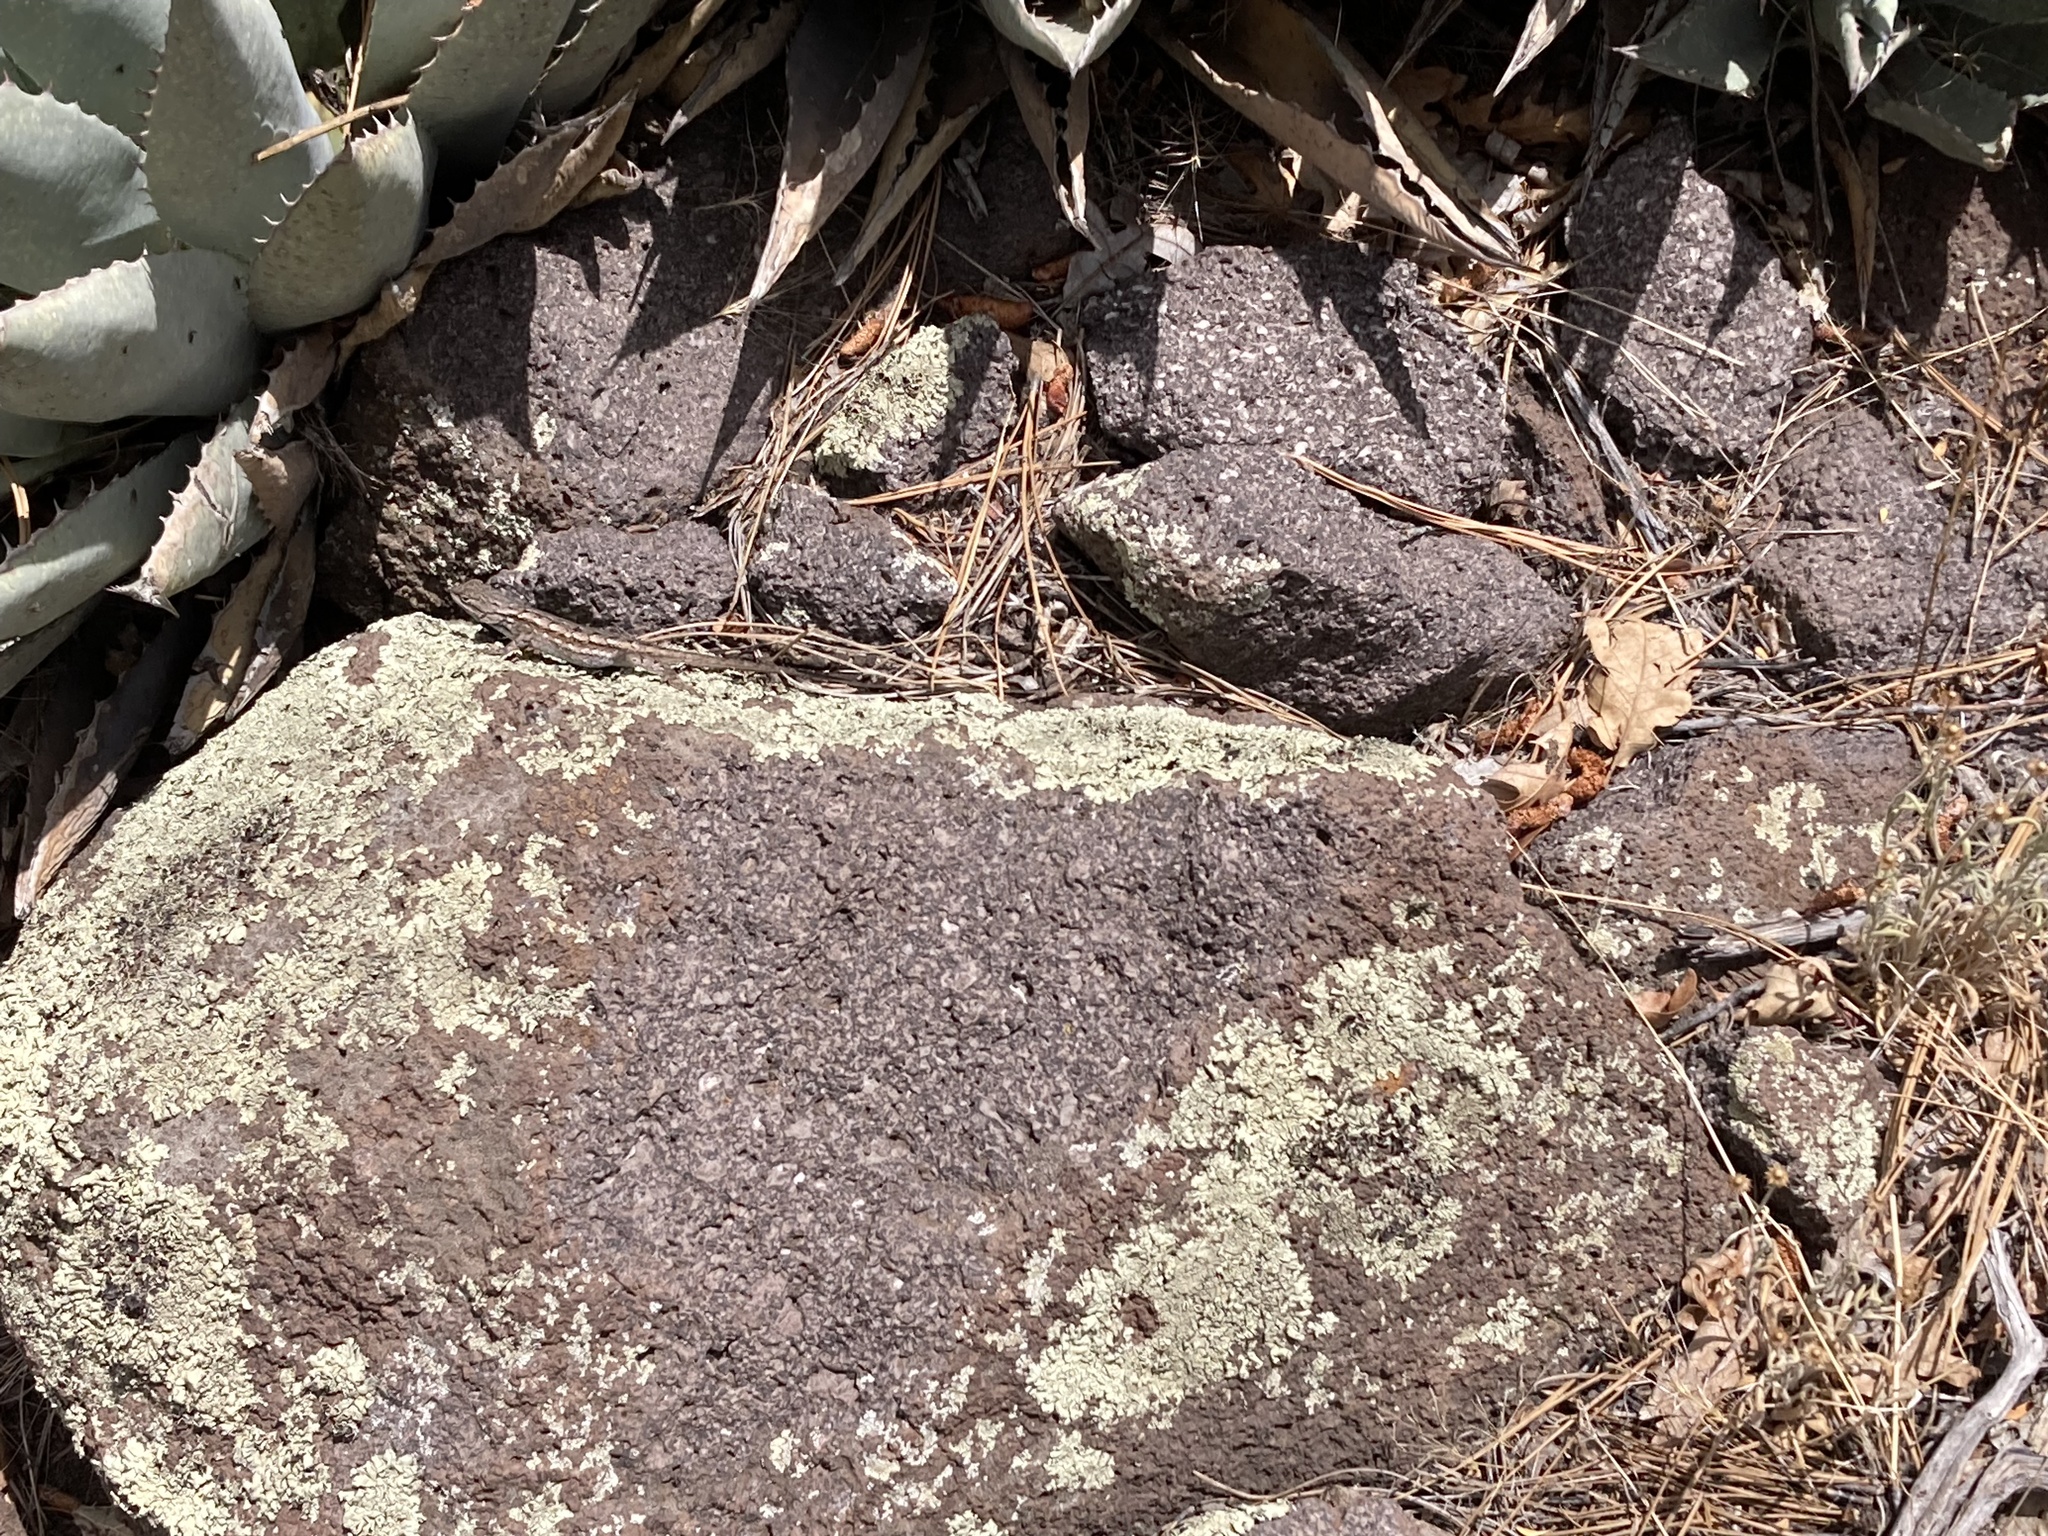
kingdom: Animalia
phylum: Chordata
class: Squamata
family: Phrynosomatidae
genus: Sceloporus
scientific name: Sceloporus tristichus
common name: Plateau fence lizard
